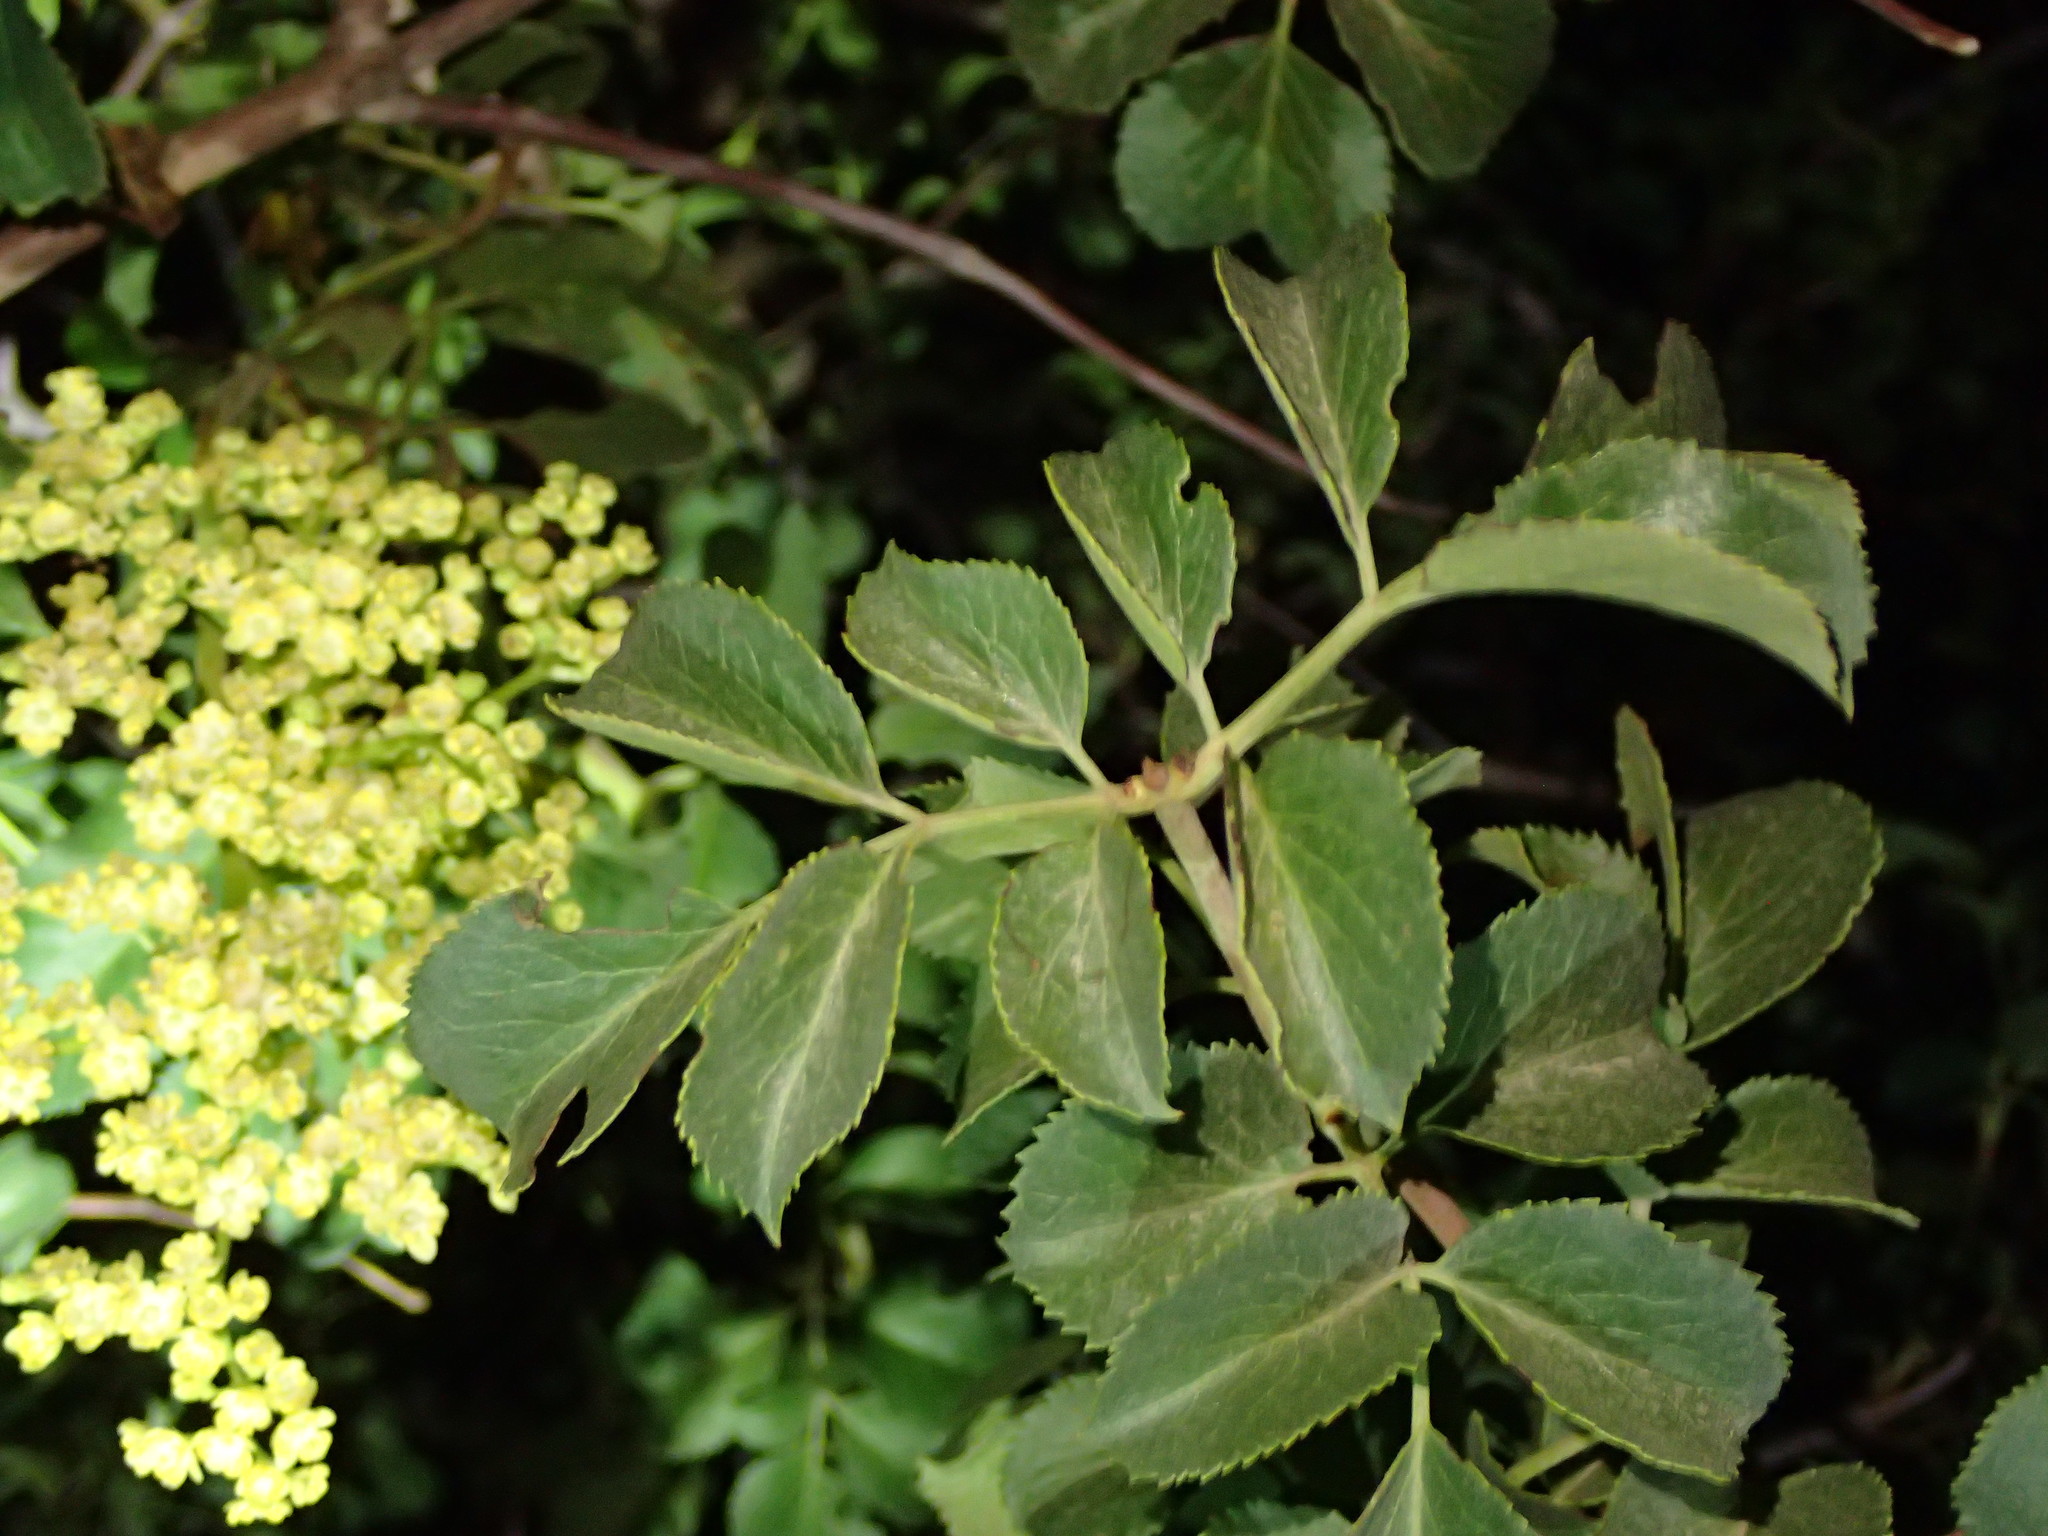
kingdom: Plantae
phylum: Tracheophyta
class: Magnoliopsida
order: Dipsacales
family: Viburnaceae
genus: Sambucus
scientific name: Sambucus cerulea
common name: Blue elder
